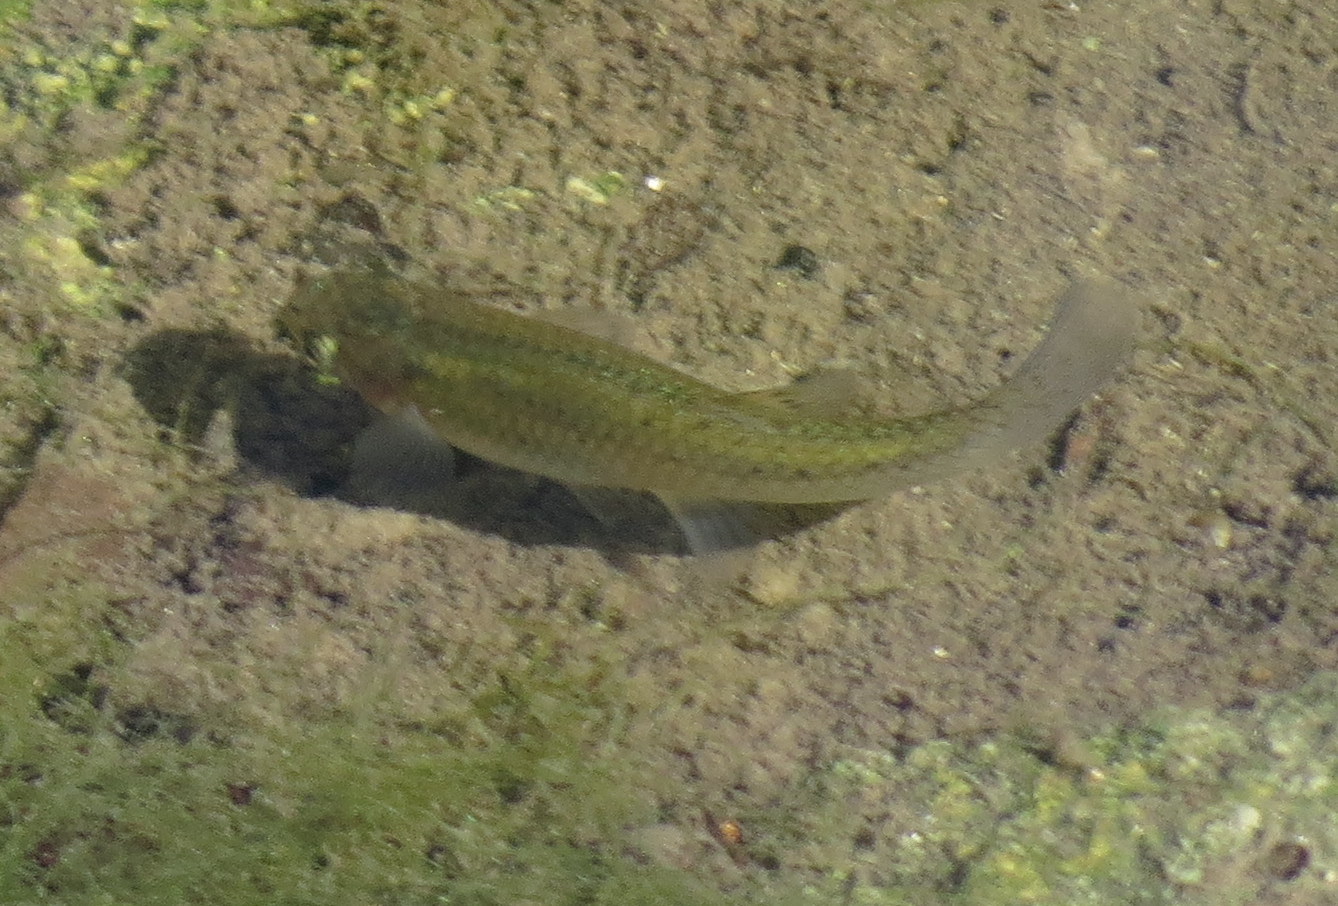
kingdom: Animalia
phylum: Chordata
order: Cyprinodontiformes
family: Poeciliidae
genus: Gambusia
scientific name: Gambusia affinis
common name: Mosquitofish
